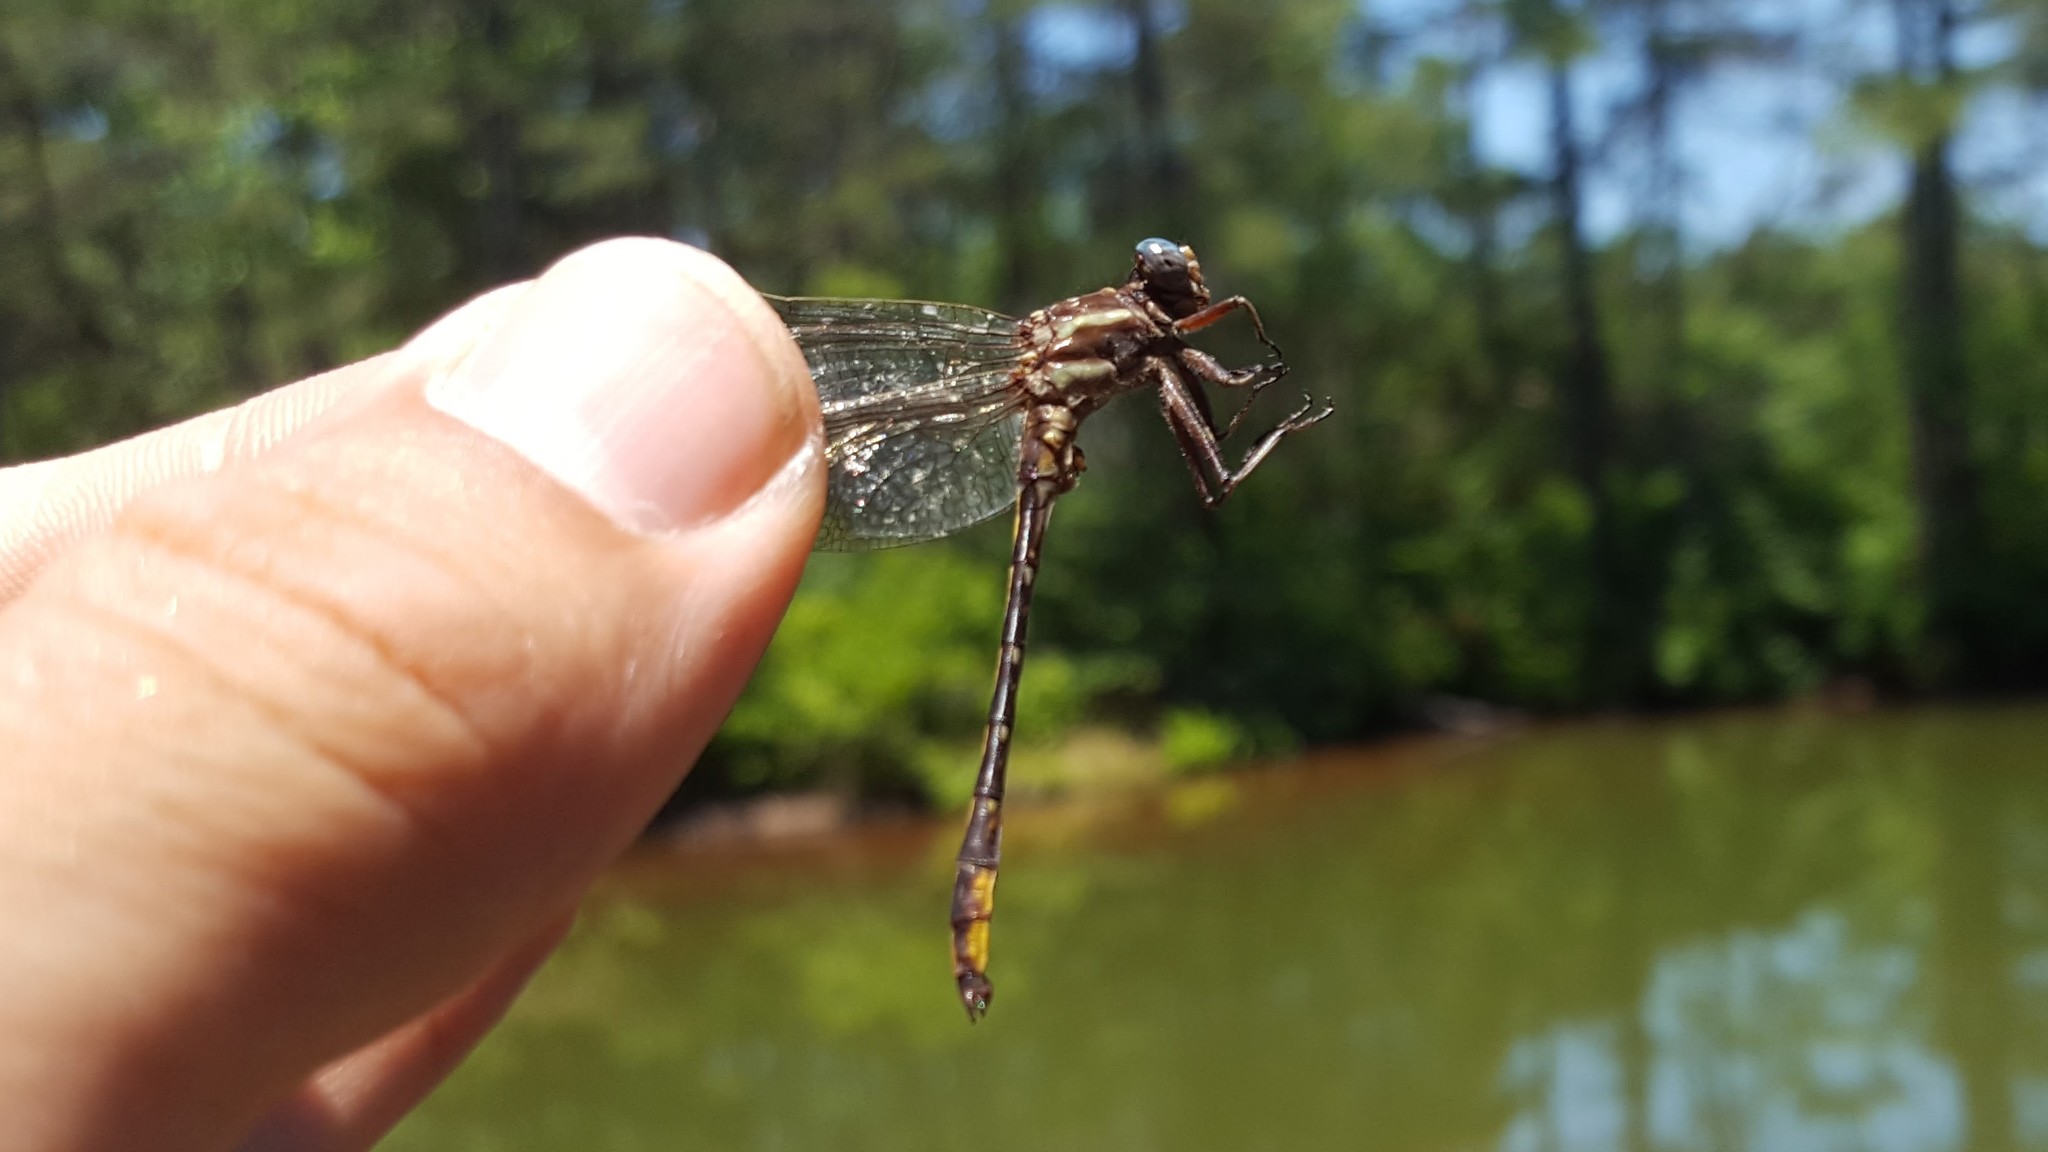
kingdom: Animalia
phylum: Arthropoda
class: Insecta
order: Odonata
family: Gomphidae
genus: Phanogomphus
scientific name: Phanogomphus exilis
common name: Lancet clubtail
